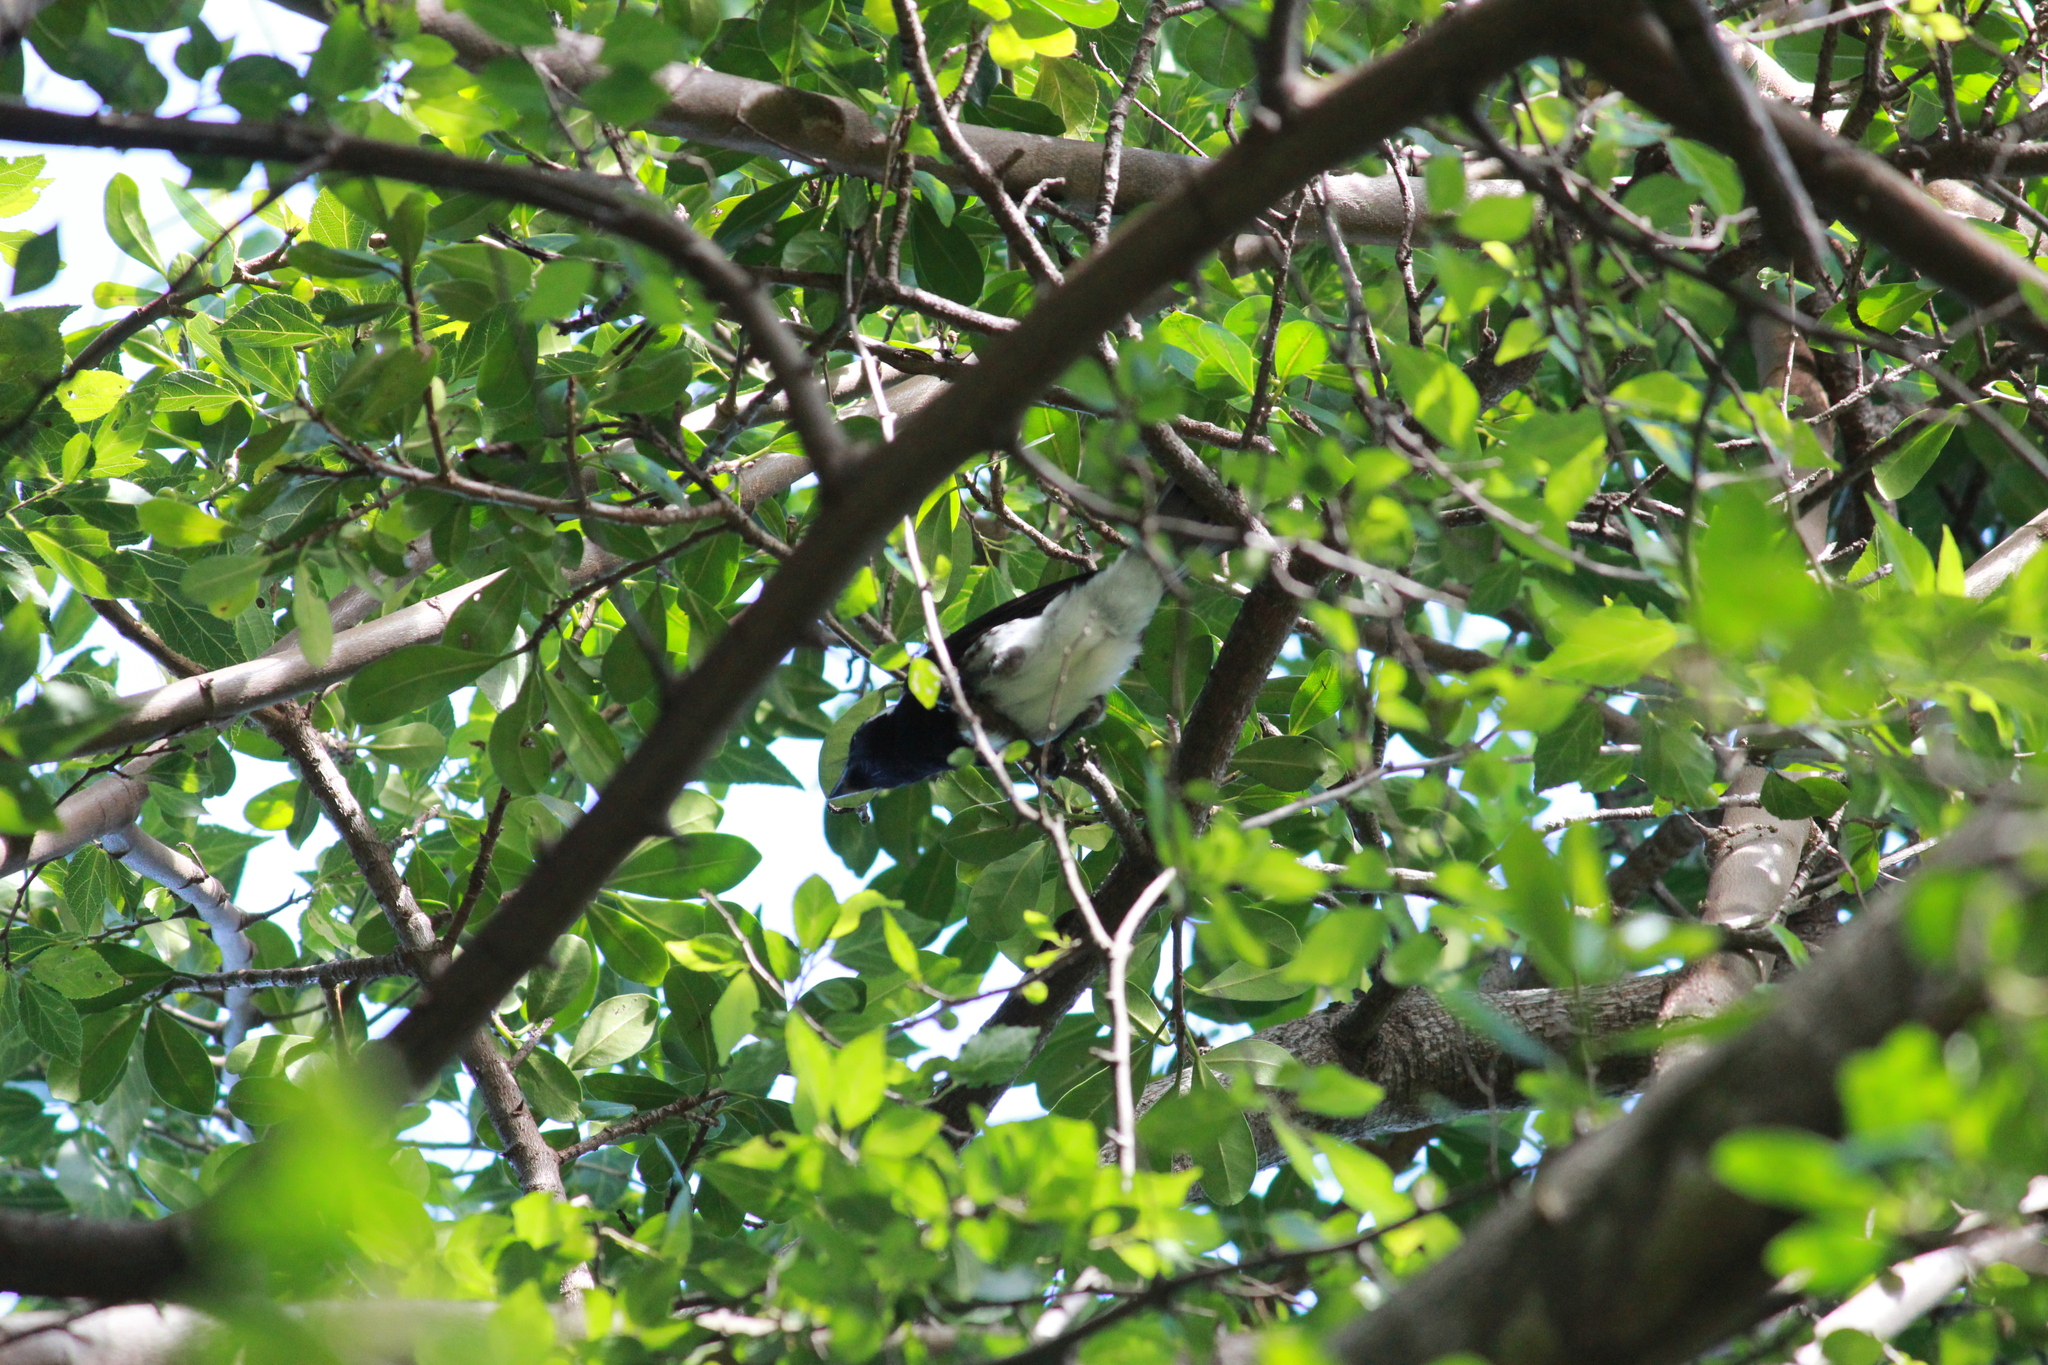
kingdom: Animalia
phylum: Chordata
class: Aves
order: Piciformes
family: Lybiidae
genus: Stactolaema
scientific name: Stactolaema leucotis
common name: White-eared barbet
